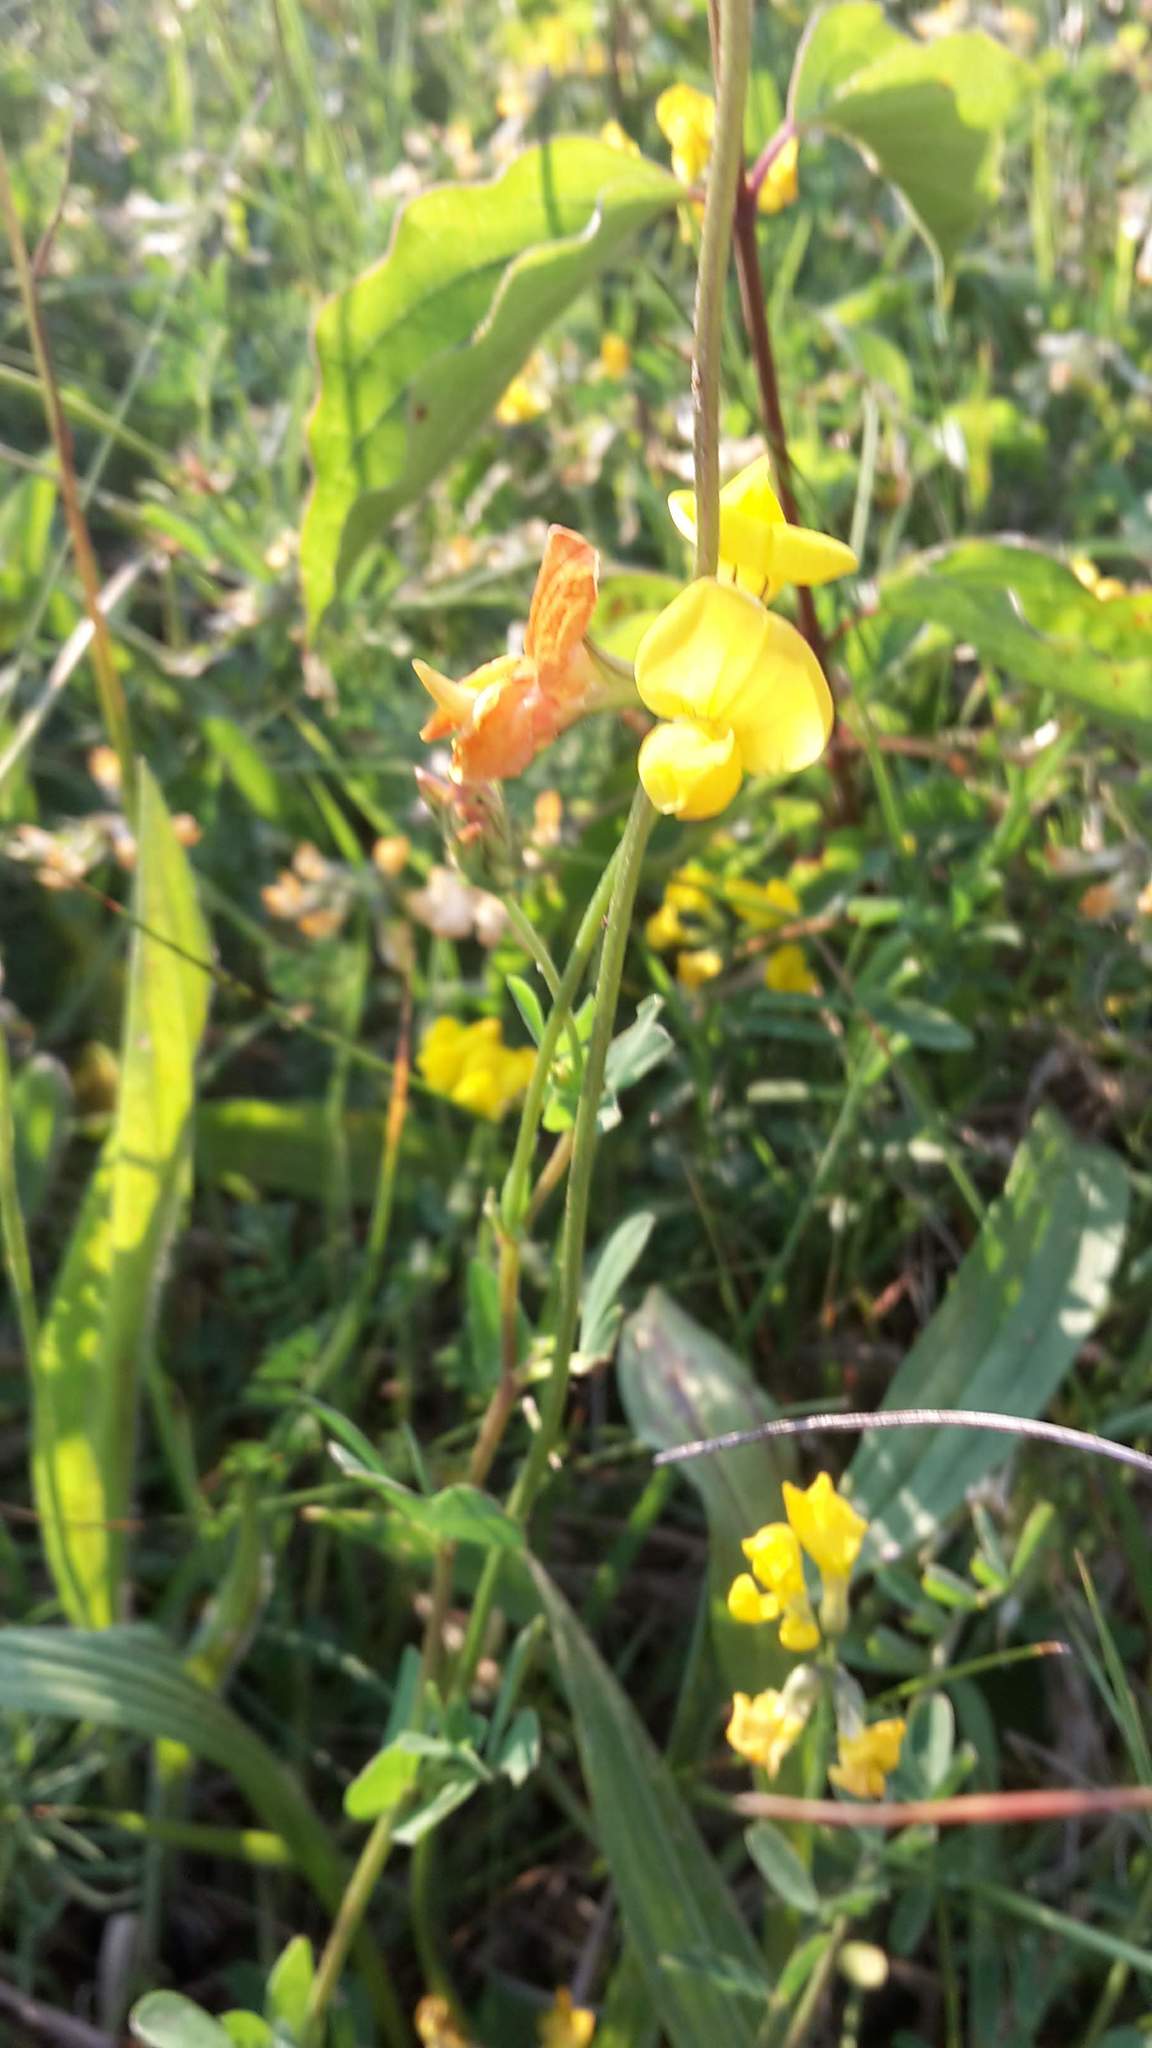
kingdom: Plantae
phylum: Tracheophyta
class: Magnoliopsida
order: Fabales
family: Fabaceae
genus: Lotus
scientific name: Lotus corniculatus
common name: Common bird's-foot-trefoil
